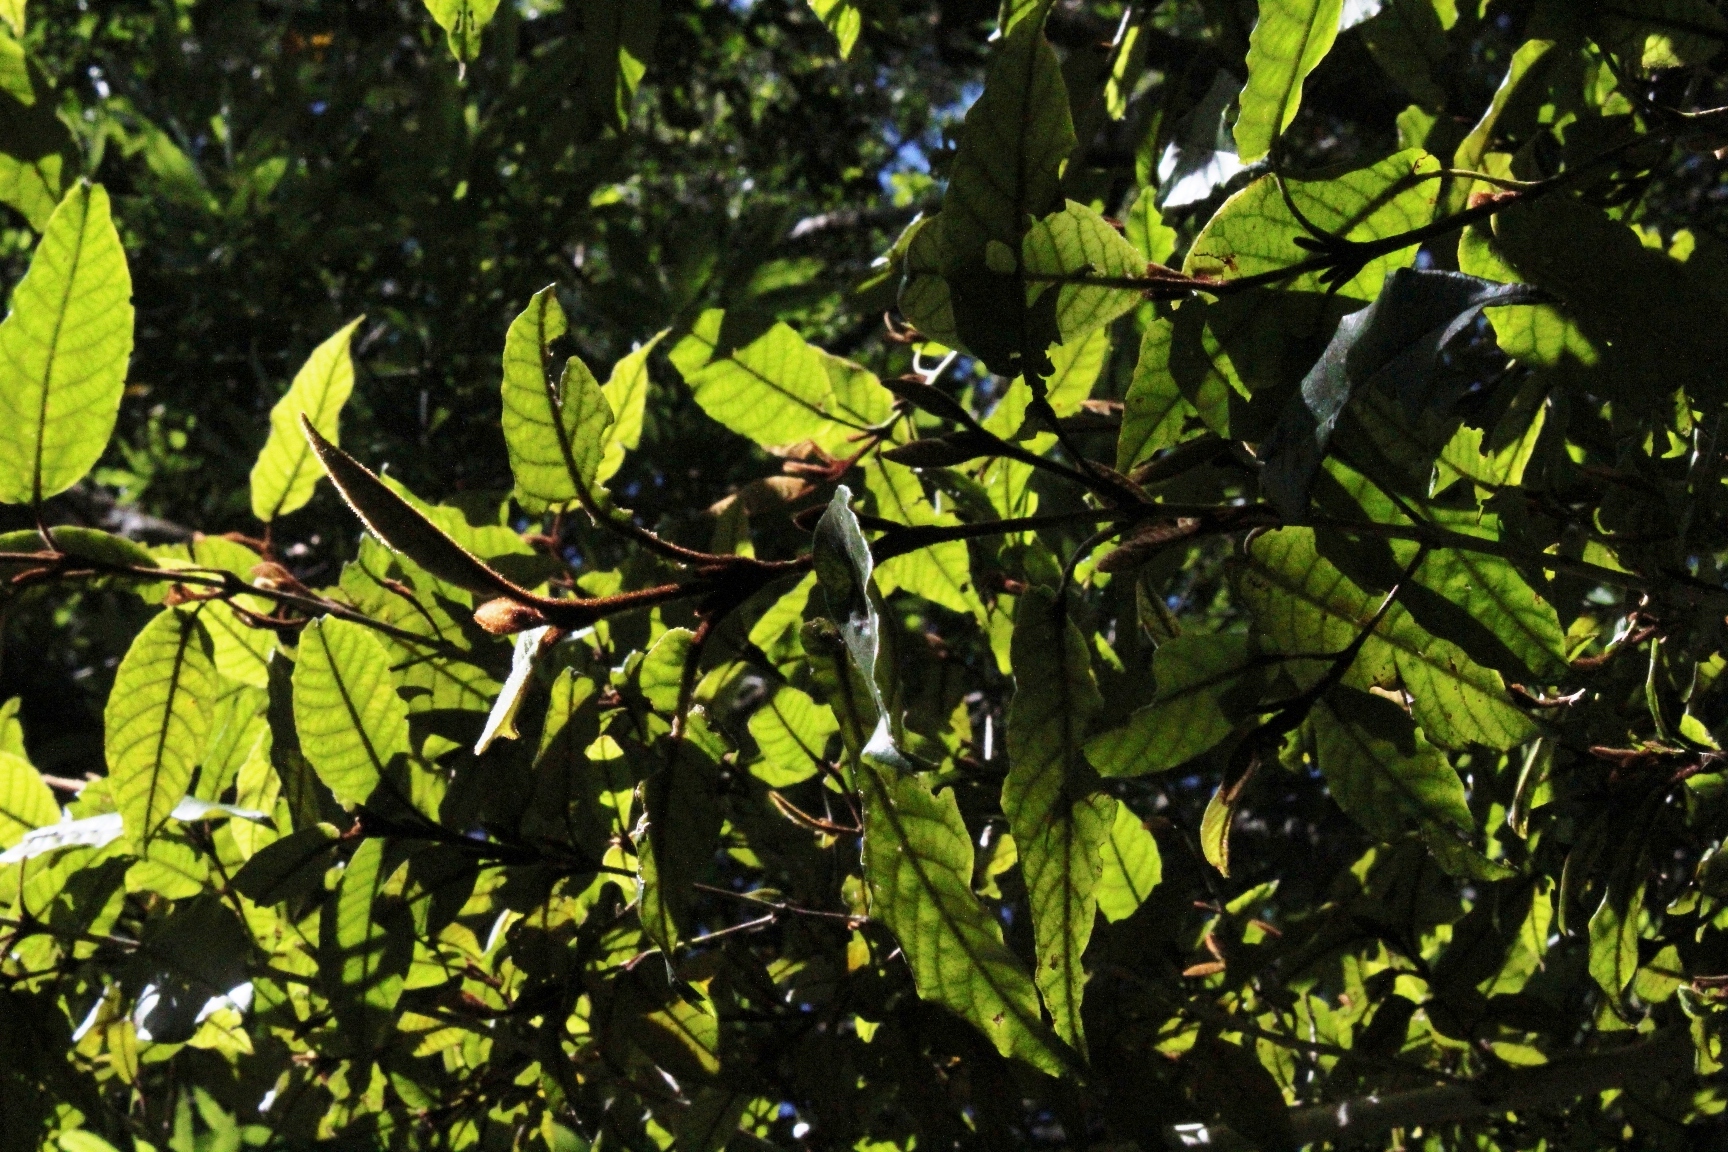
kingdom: Plantae
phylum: Tracheophyta
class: Magnoliopsida
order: Saxifragales
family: Hamamelidaceae
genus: Trichocladus
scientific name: Trichocladus crinitus
